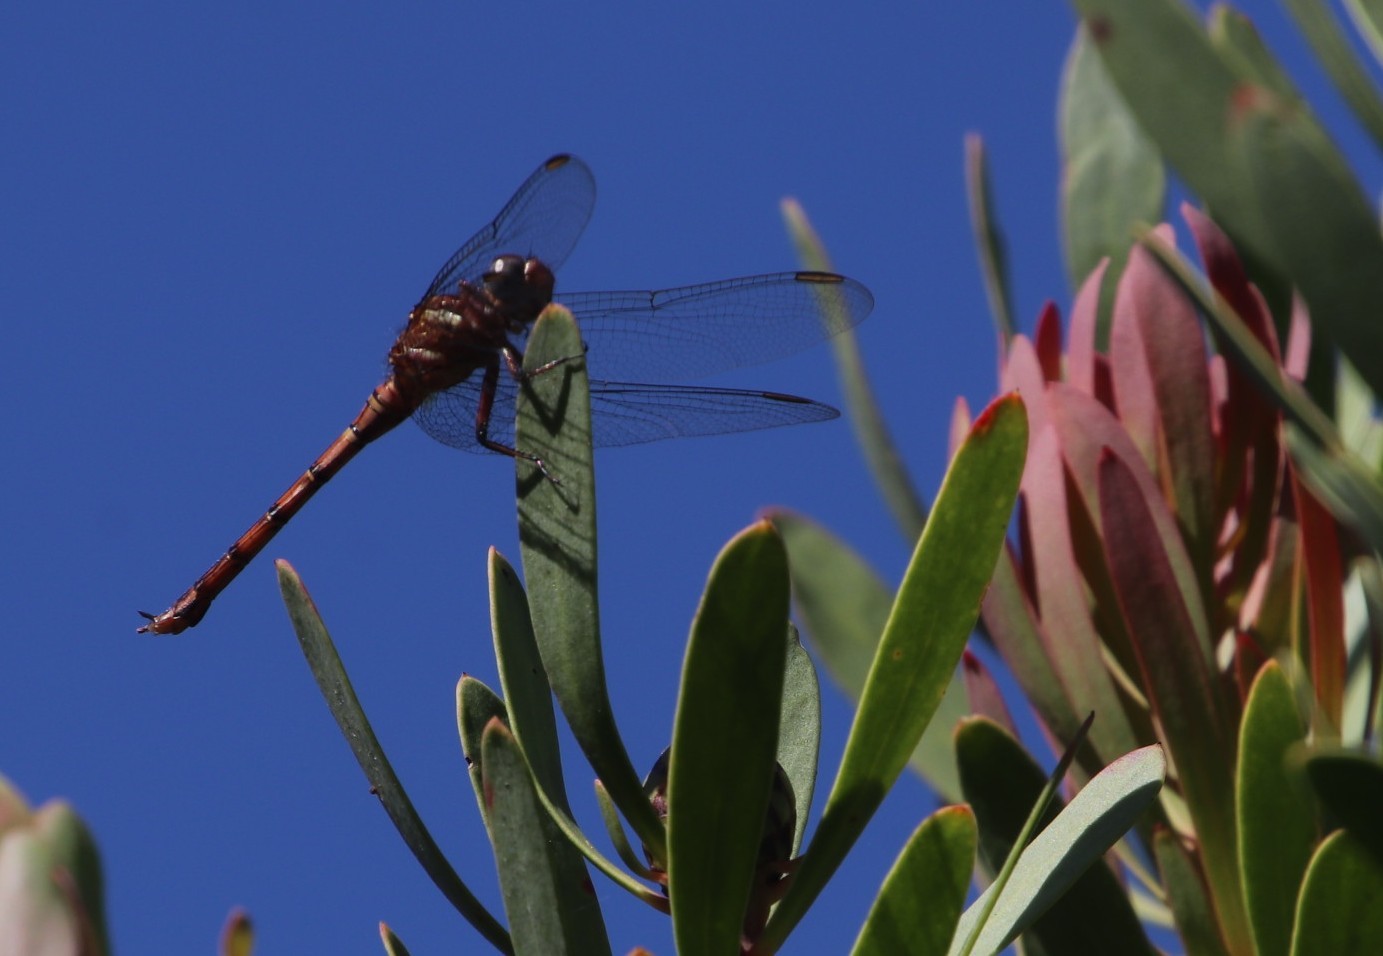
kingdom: Animalia
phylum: Arthropoda
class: Insecta
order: Odonata
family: Libellulidae
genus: Orthetrum
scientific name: Orthetrum julia
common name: Julia skimmer
